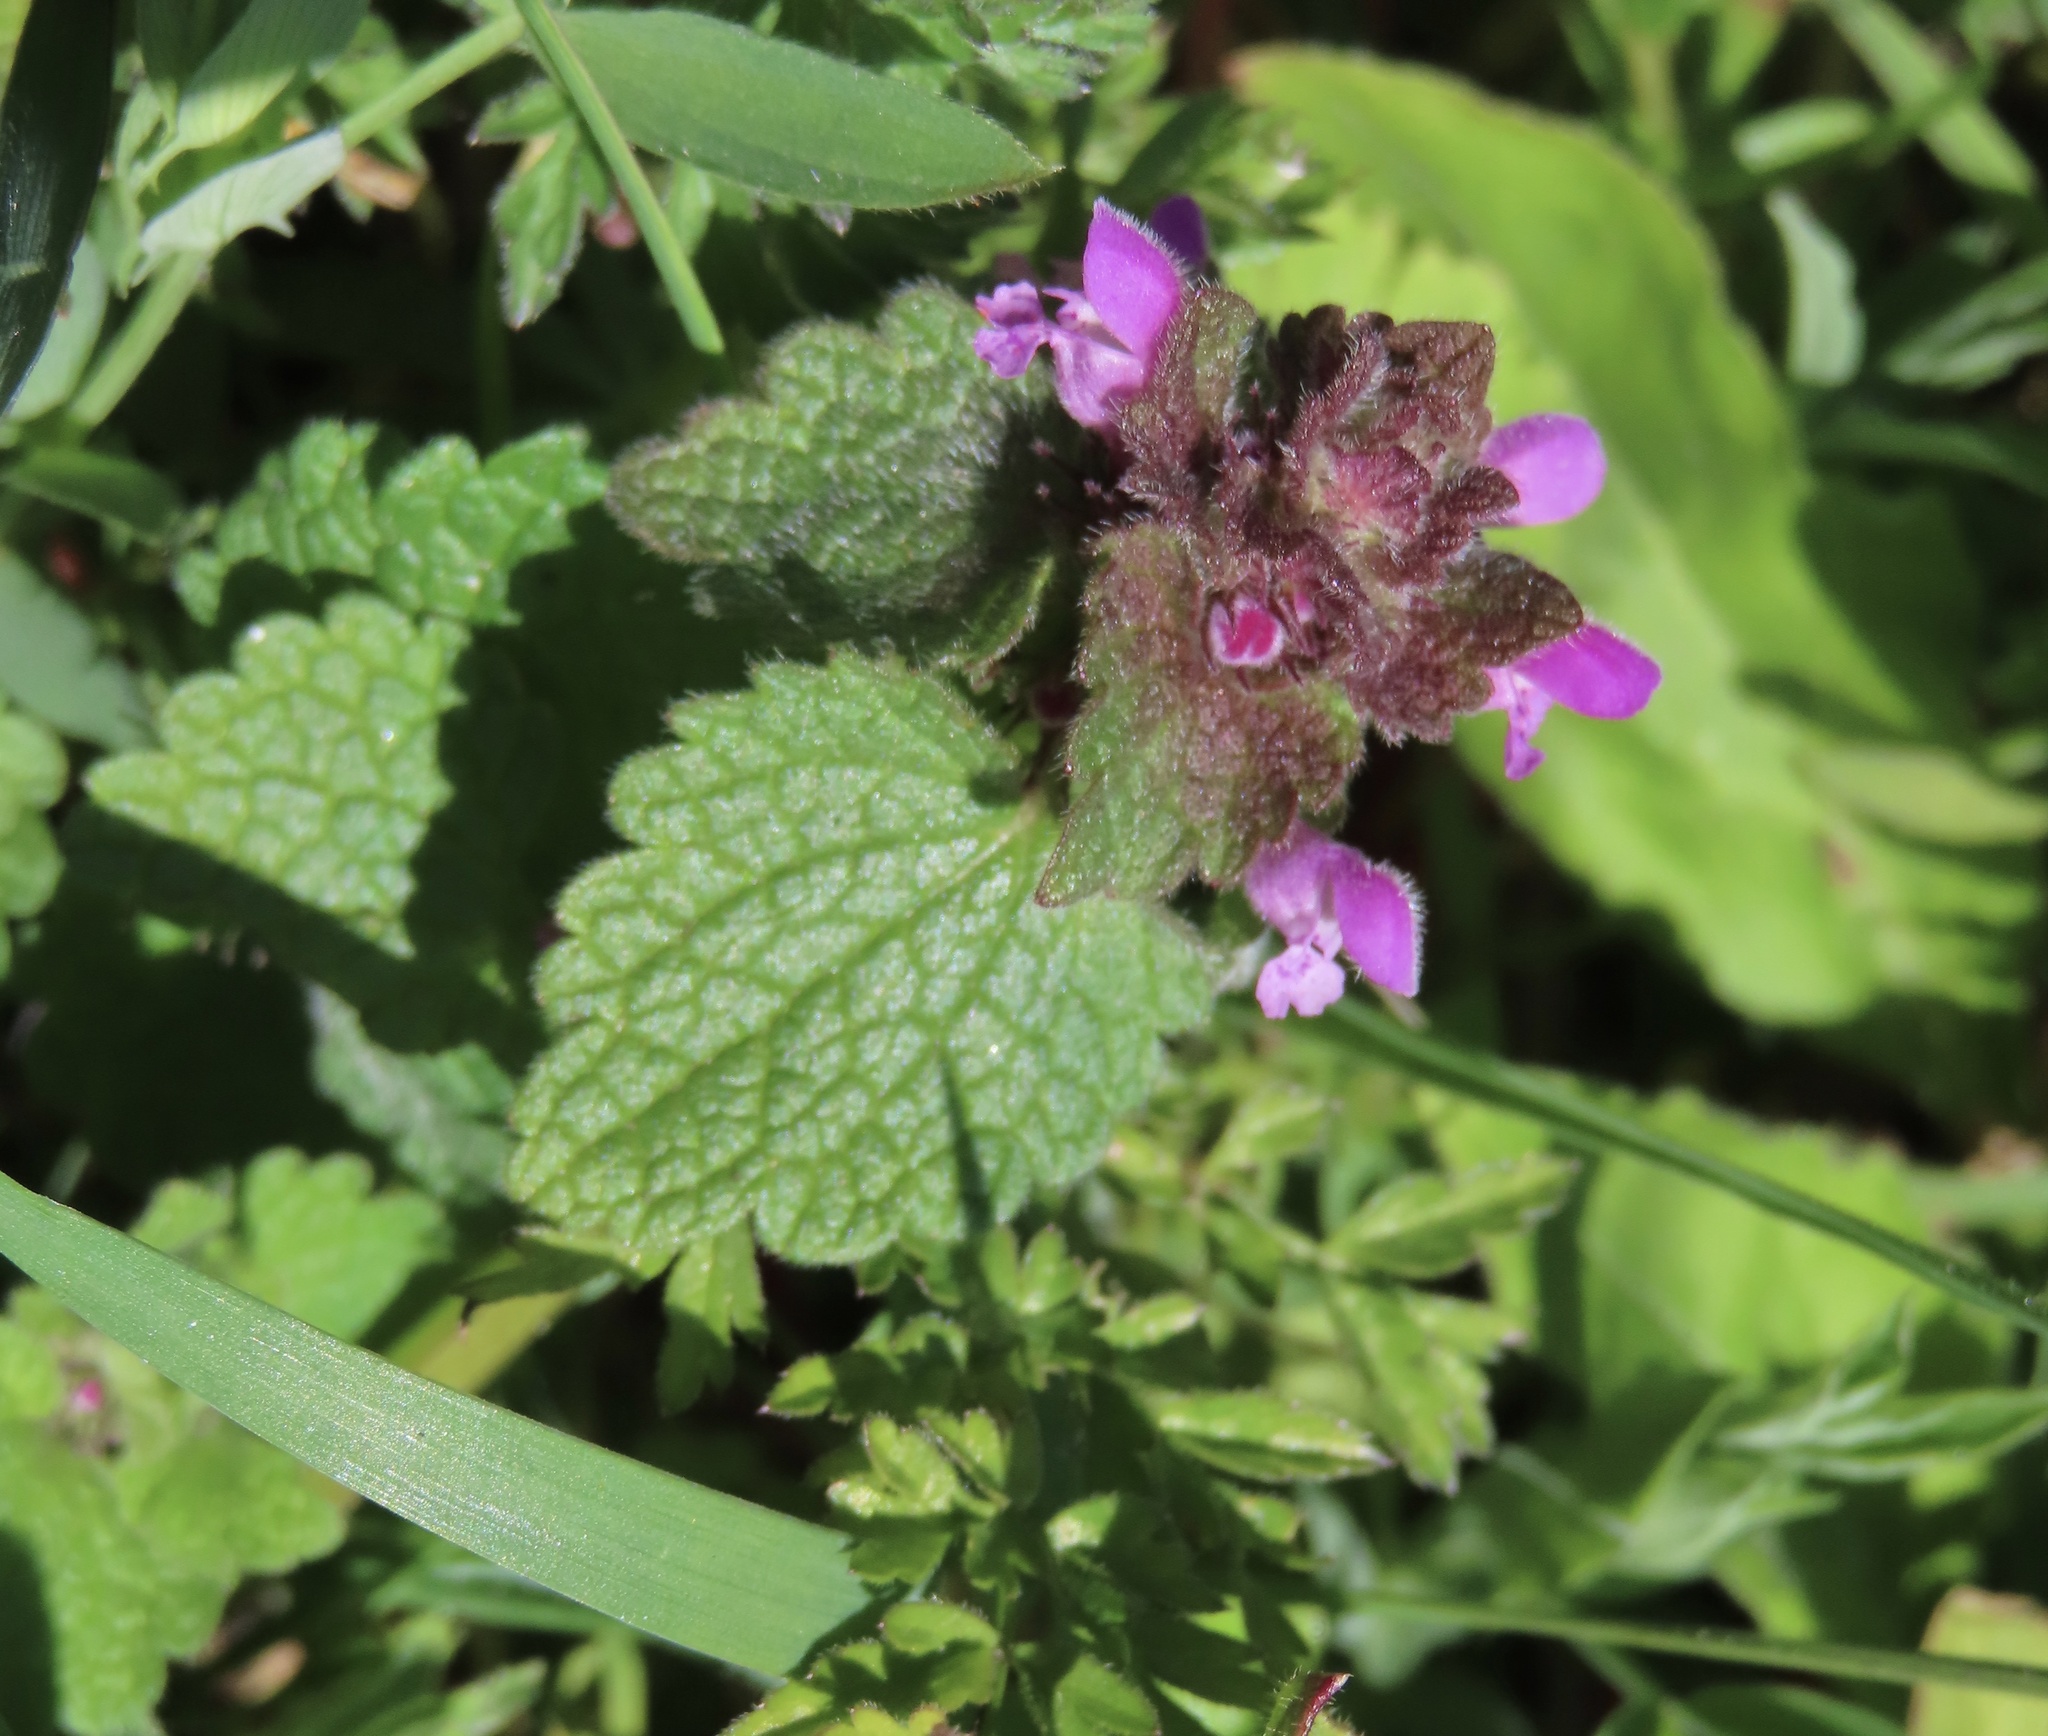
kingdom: Plantae
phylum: Tracheophyta
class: Magnoliopsida
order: Lamiales
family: Lamiaceae
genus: Lamium
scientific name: Lamium purpureum
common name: Red dead-nettle
